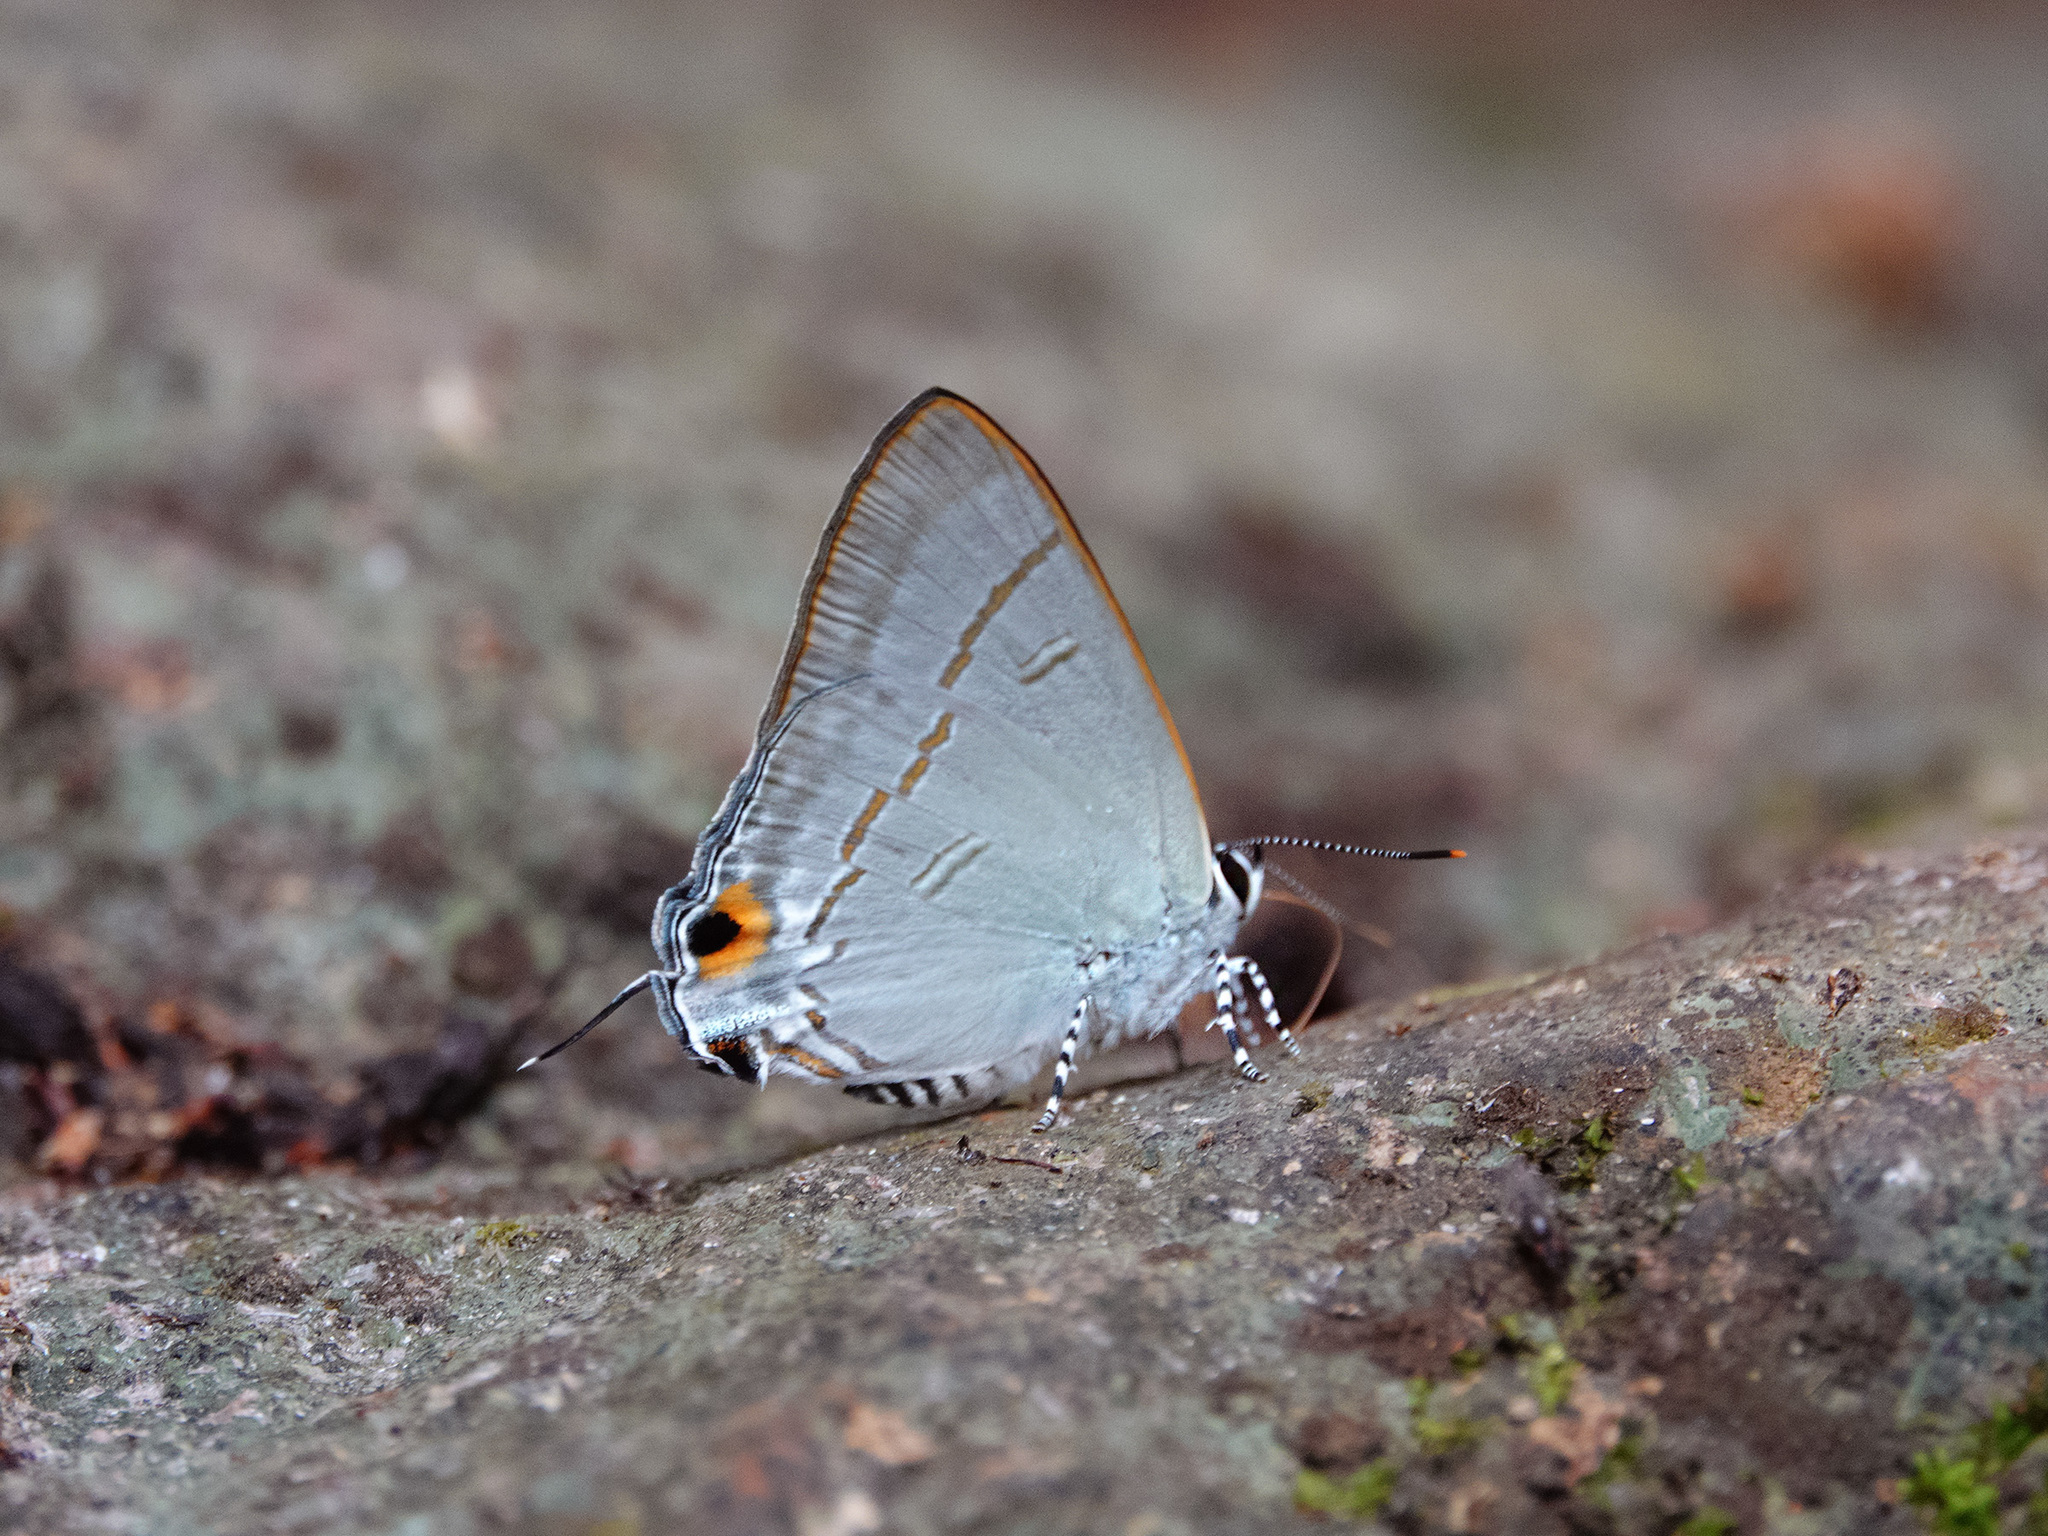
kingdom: Animalia
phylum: Arthropoda
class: Insecta
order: Lepidoptera
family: Lycaenidae
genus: Hypolycaena
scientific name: Hypolycaena erylus
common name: Common tit
